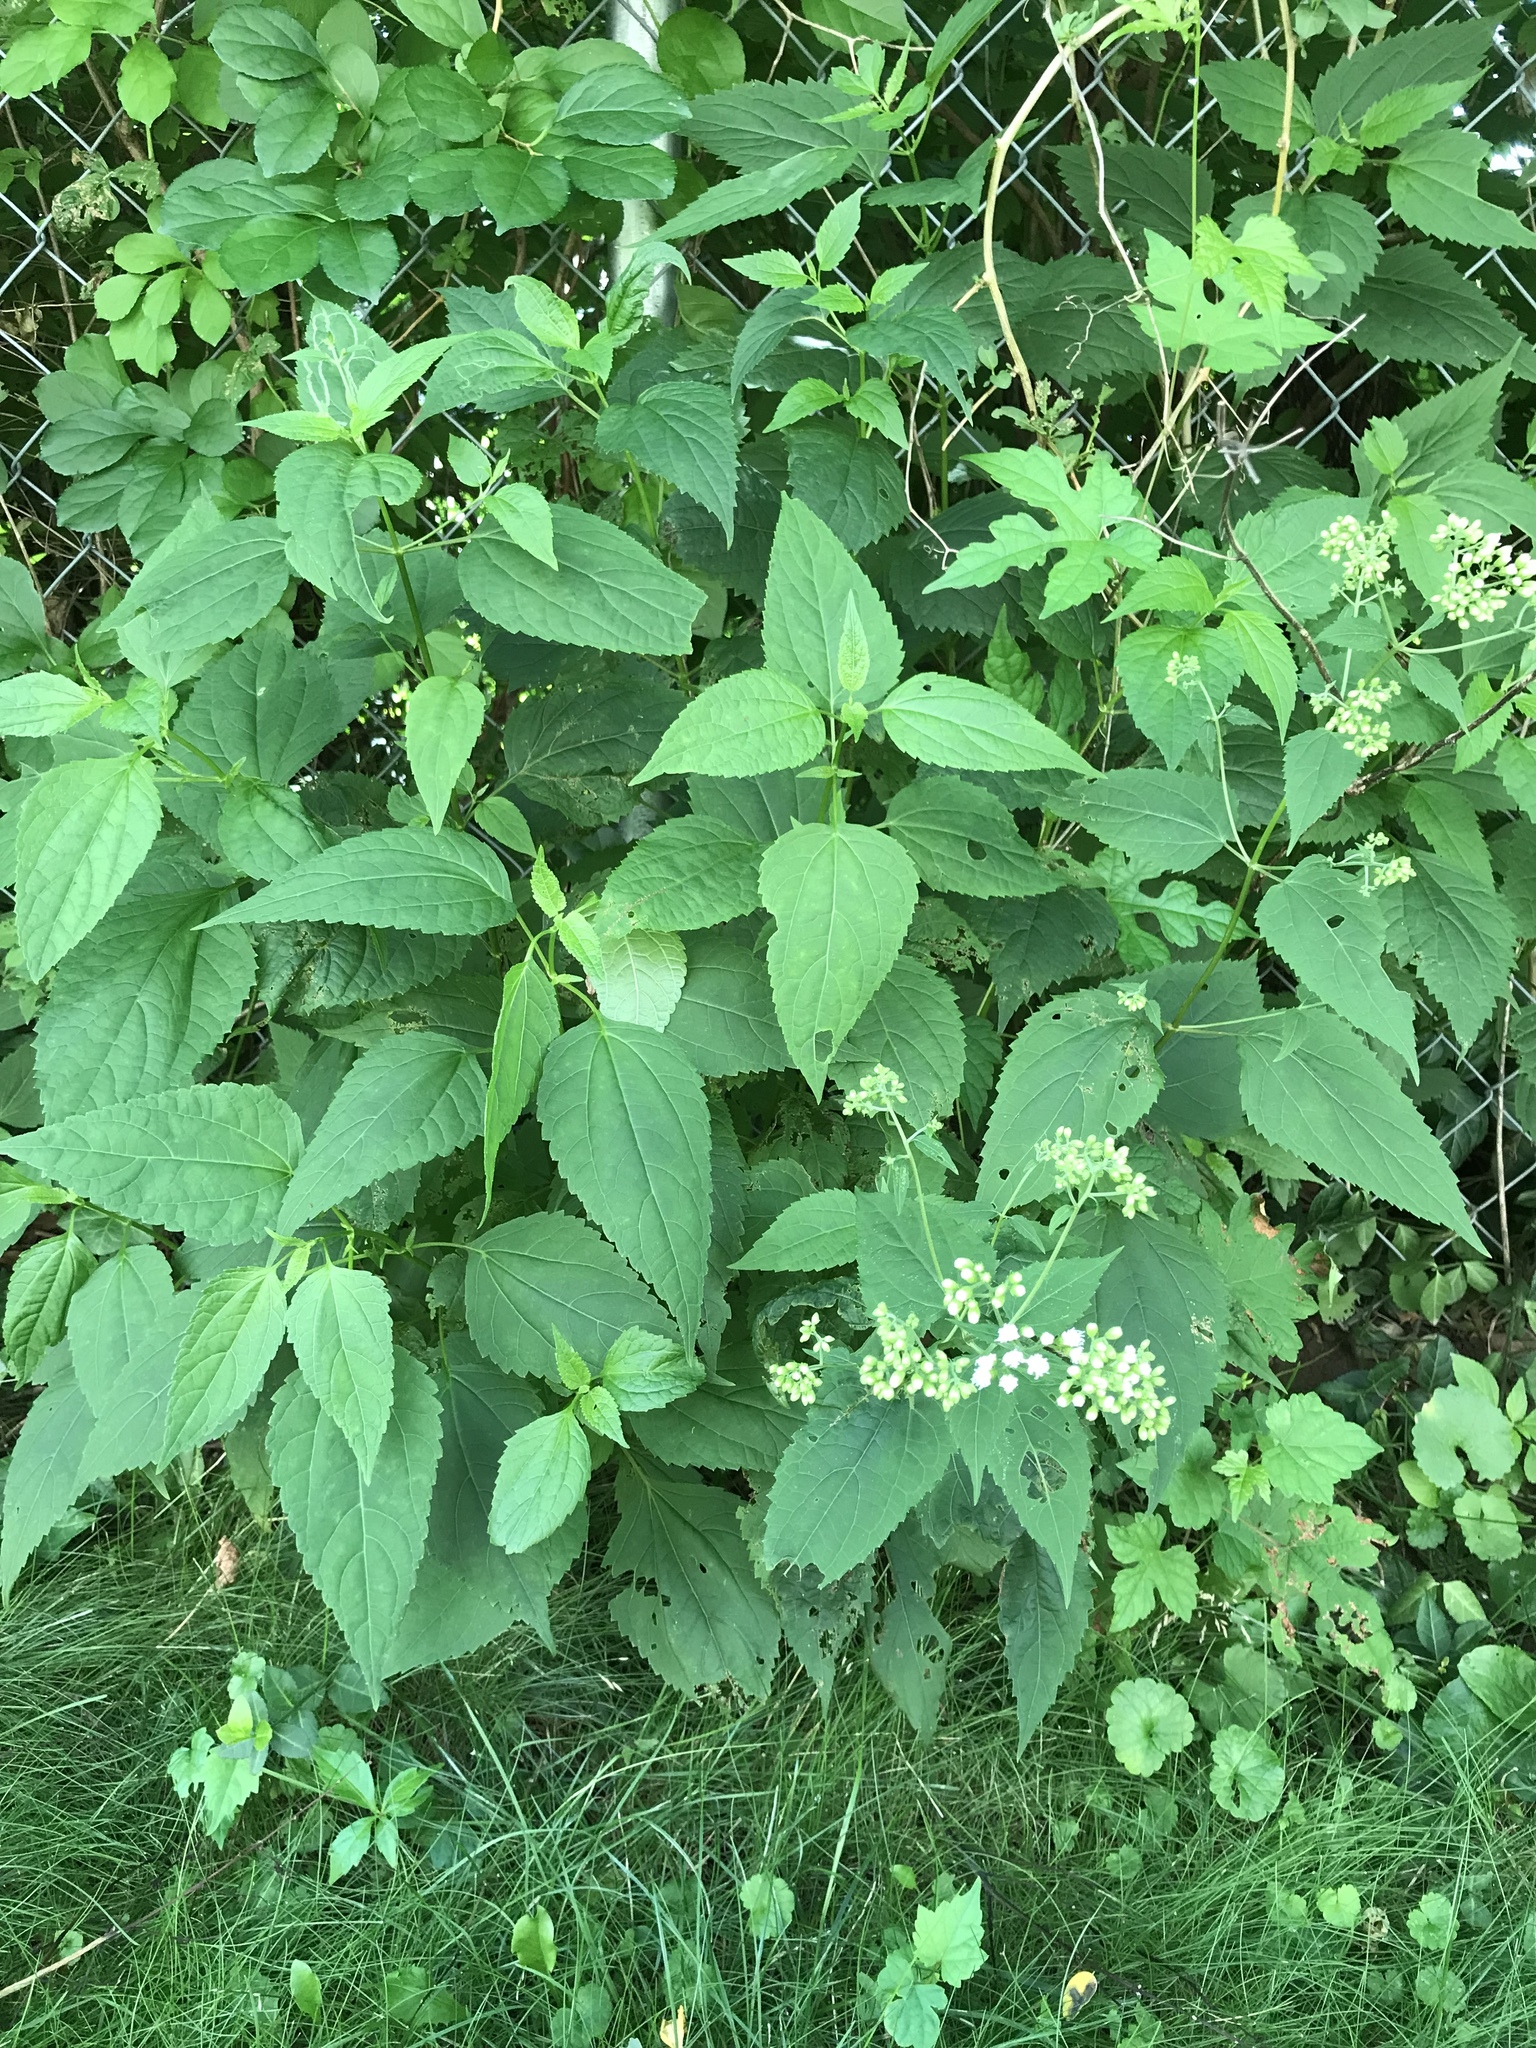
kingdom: Plantae
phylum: Tracheophyta
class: Magnoliopsida
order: Asterales
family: Asteraceae
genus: Ageratina
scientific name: Ageratina altissima
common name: White snakeroot
